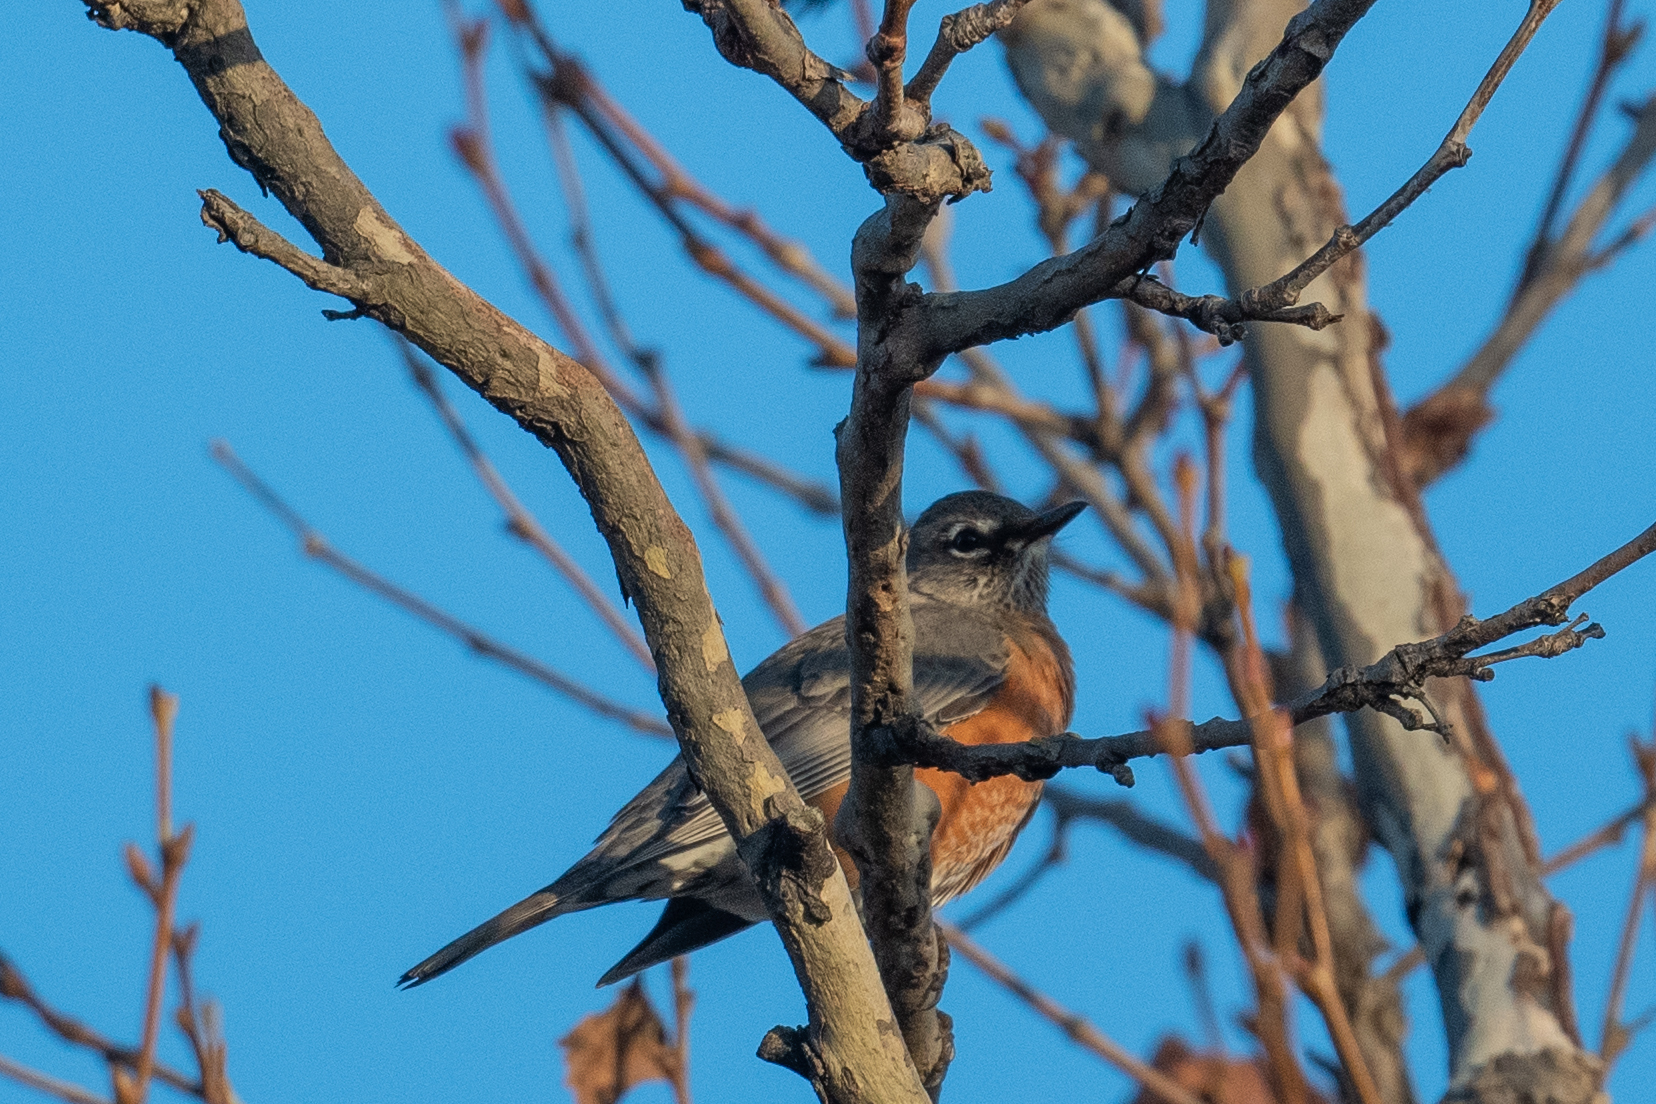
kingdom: Animalia
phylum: Chordata
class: Aves
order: Passeriformes
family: Turdidae
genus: Turdus
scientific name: Turdus migratorius
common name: American robin
